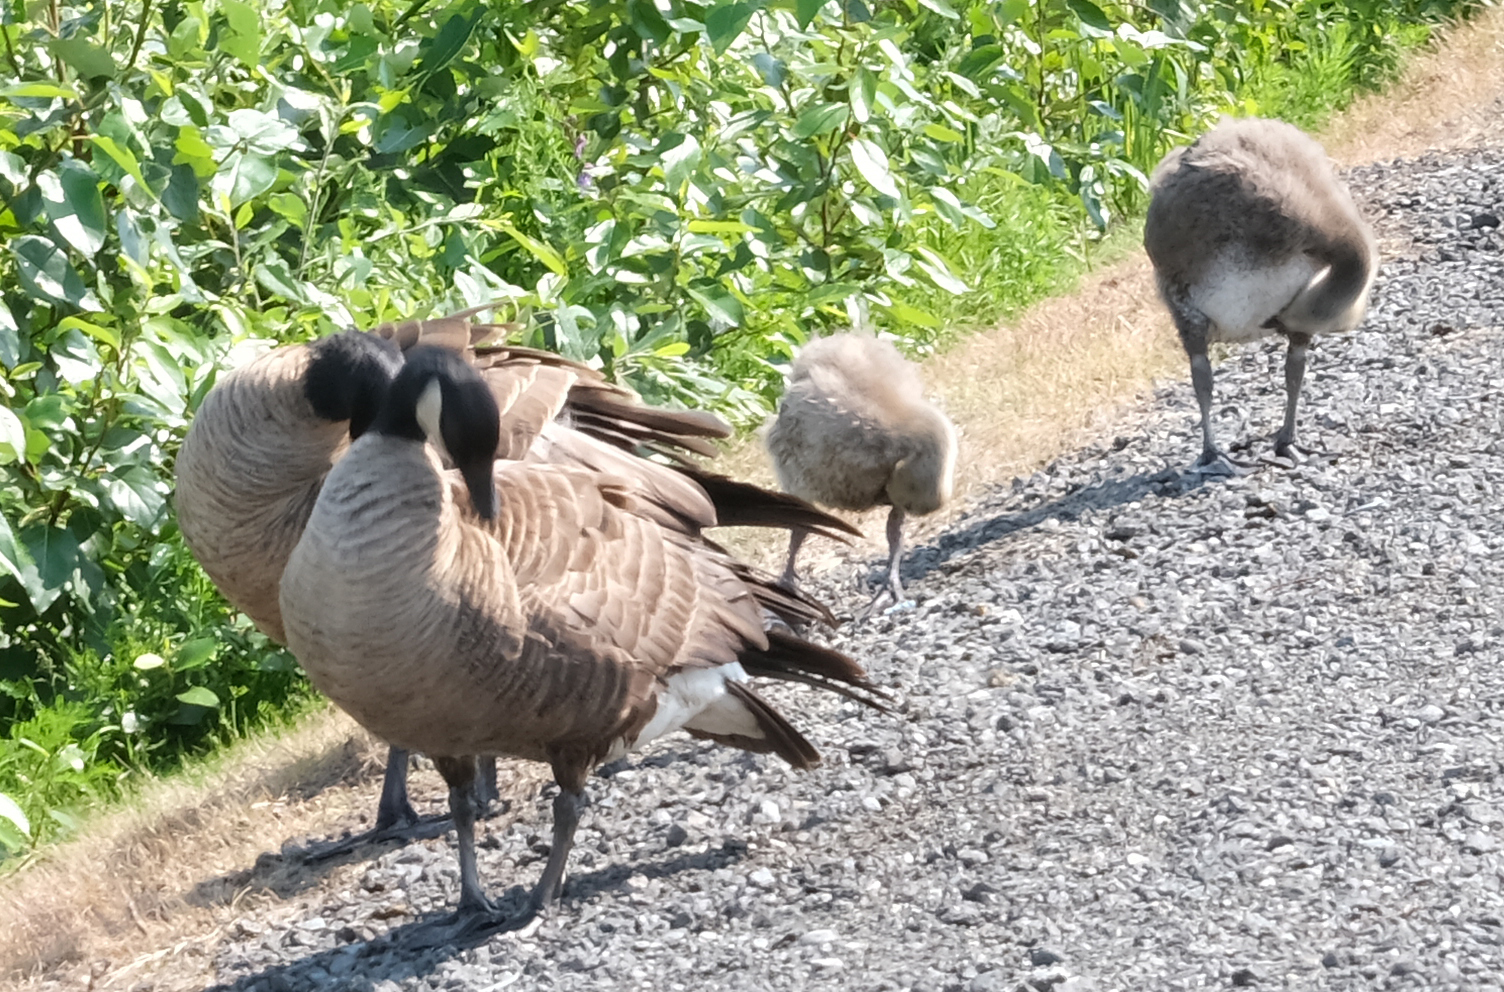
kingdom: Animalia
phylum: Chordata
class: Aves
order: Anseriformes
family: Anatidae
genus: Branta
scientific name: Branta canadensis
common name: Canada goose
